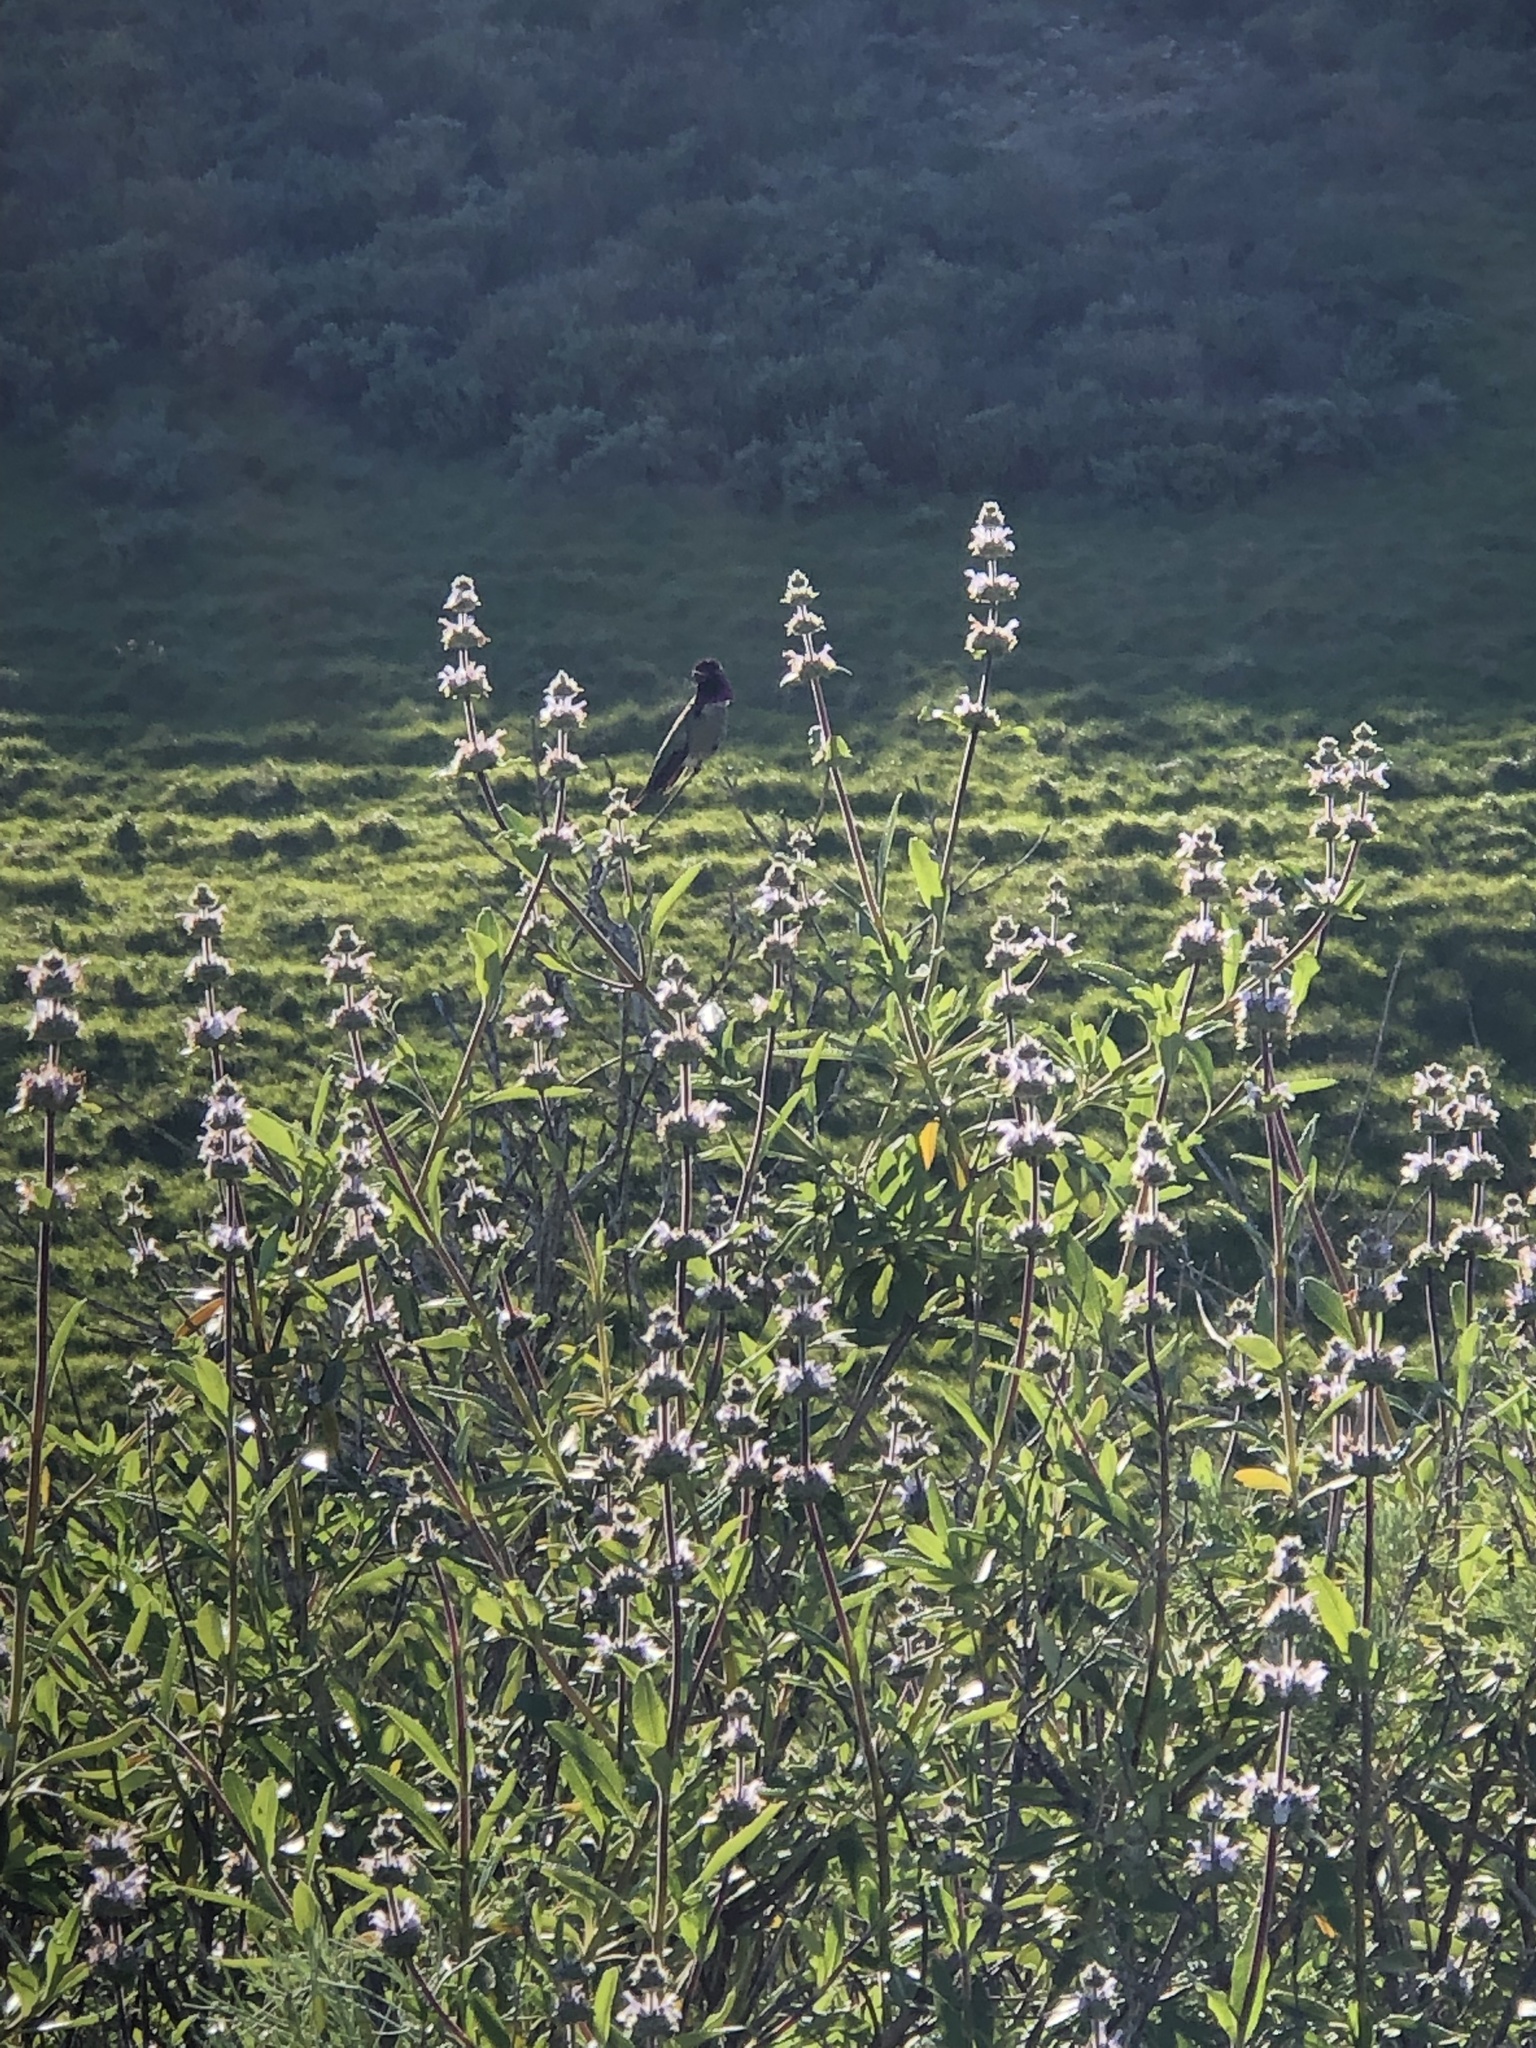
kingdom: Plantae
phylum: Tracheophyta
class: Magnoliopsida
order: Lamiales
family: Lamiaceae
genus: Salvia
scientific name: Salvia mellifera
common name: Black sage
